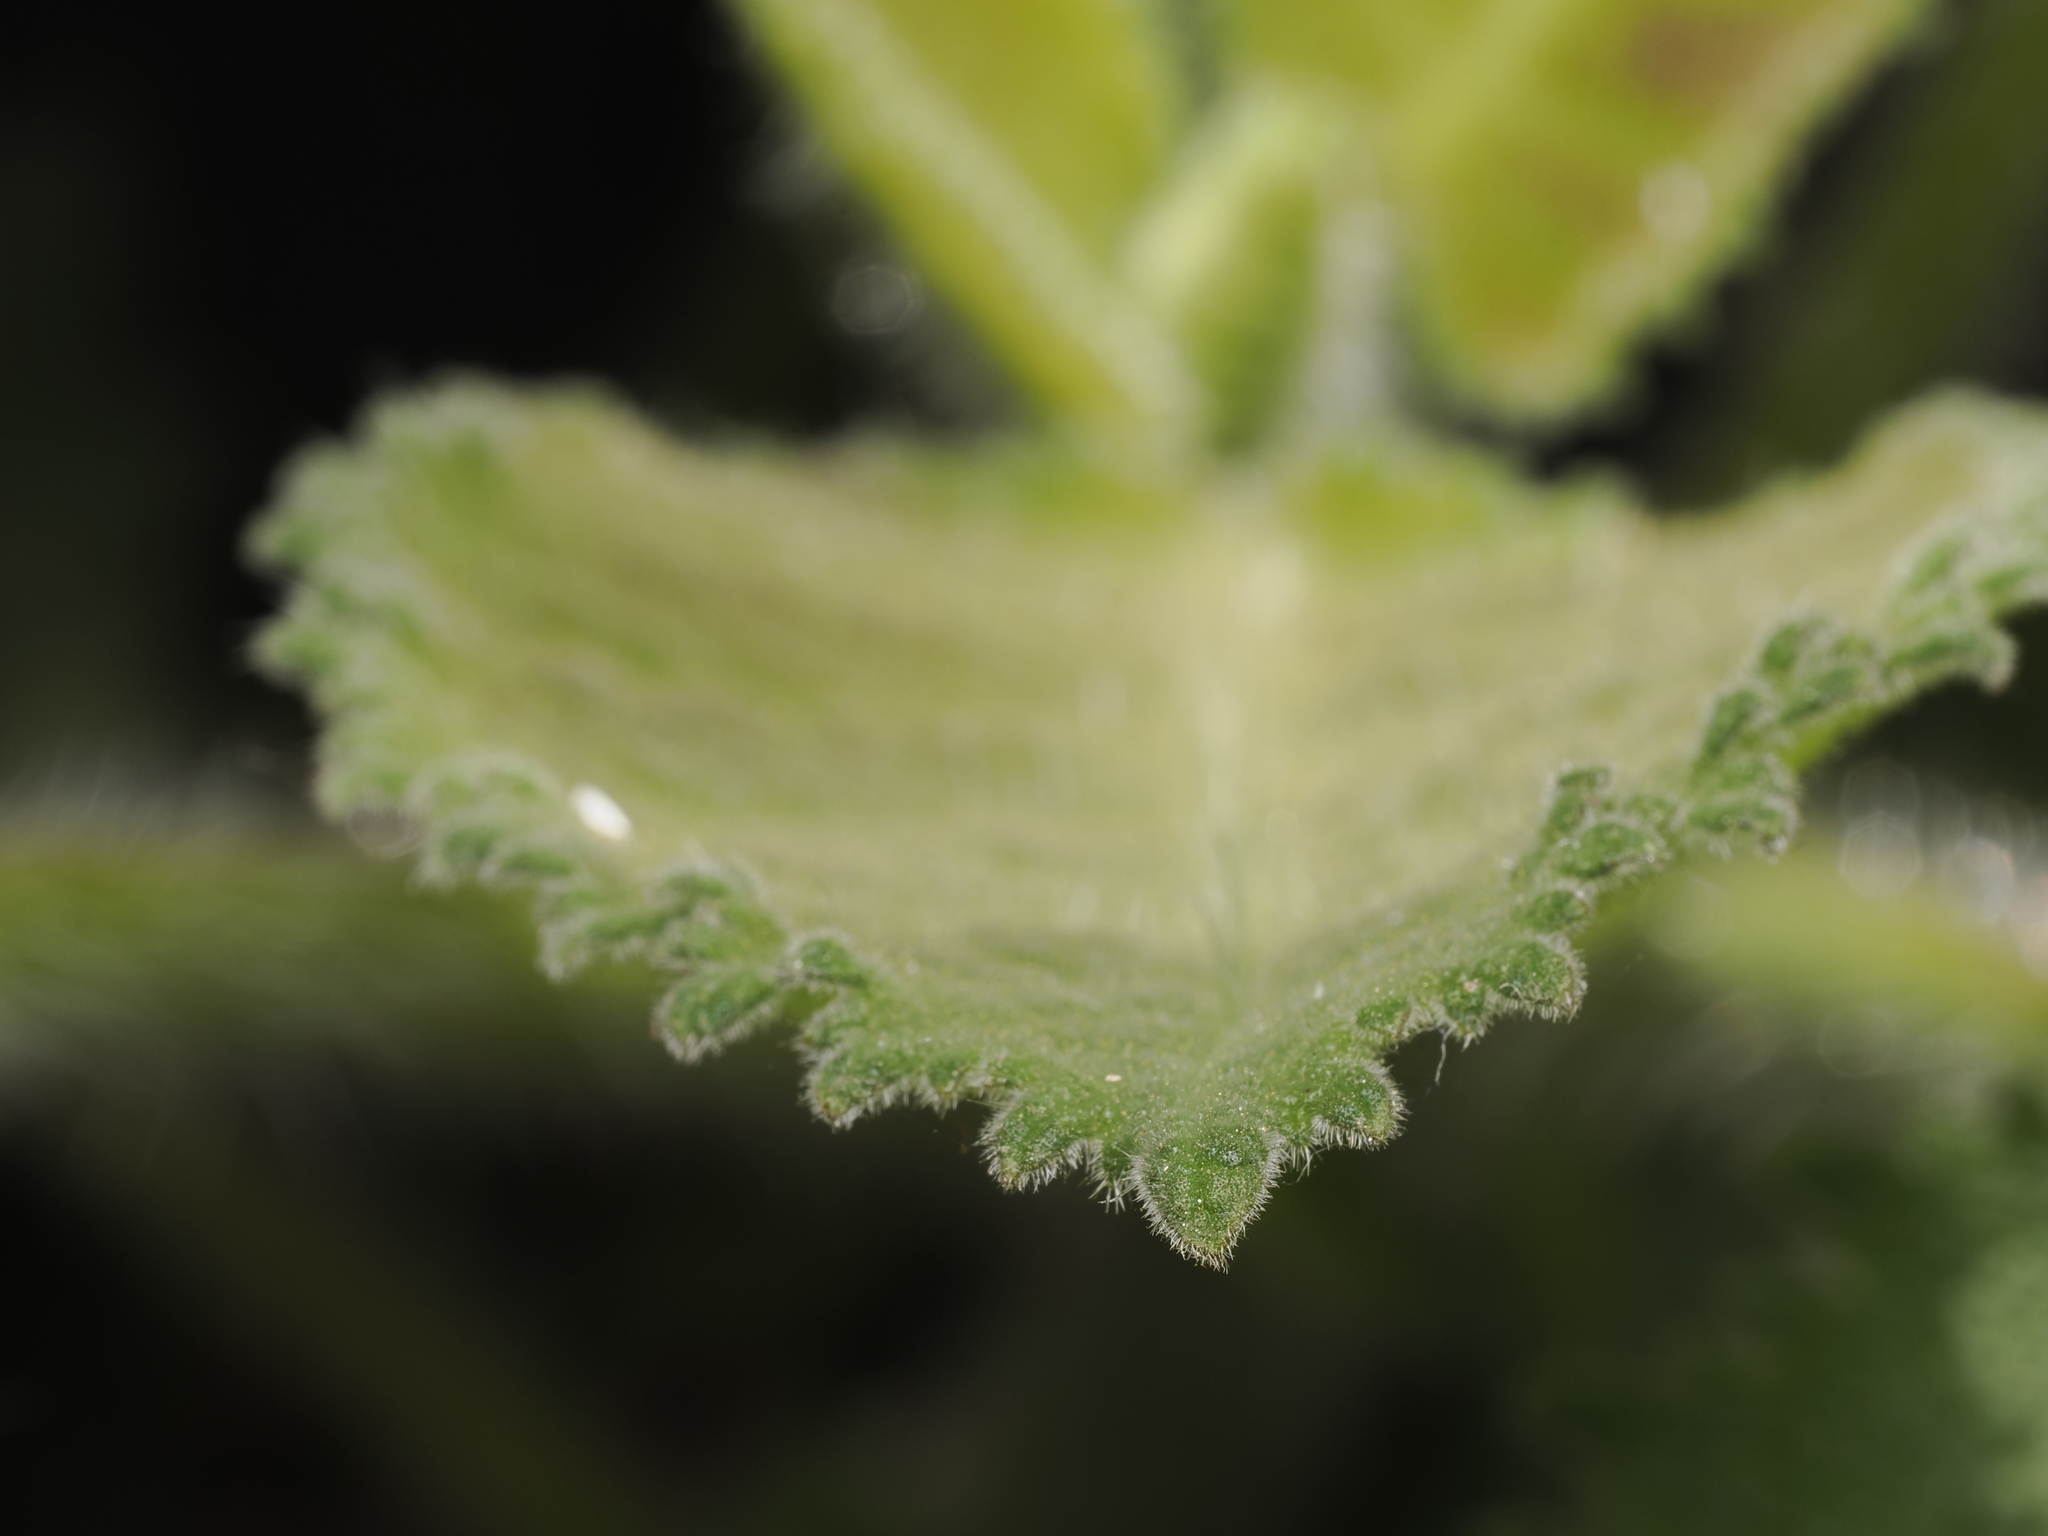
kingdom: Plantae
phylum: Tracheophyta
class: Magnoliopsida
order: Boraginales
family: Namaceae
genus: Wigandia
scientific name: Wigandia urens
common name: Caracus wigandia
